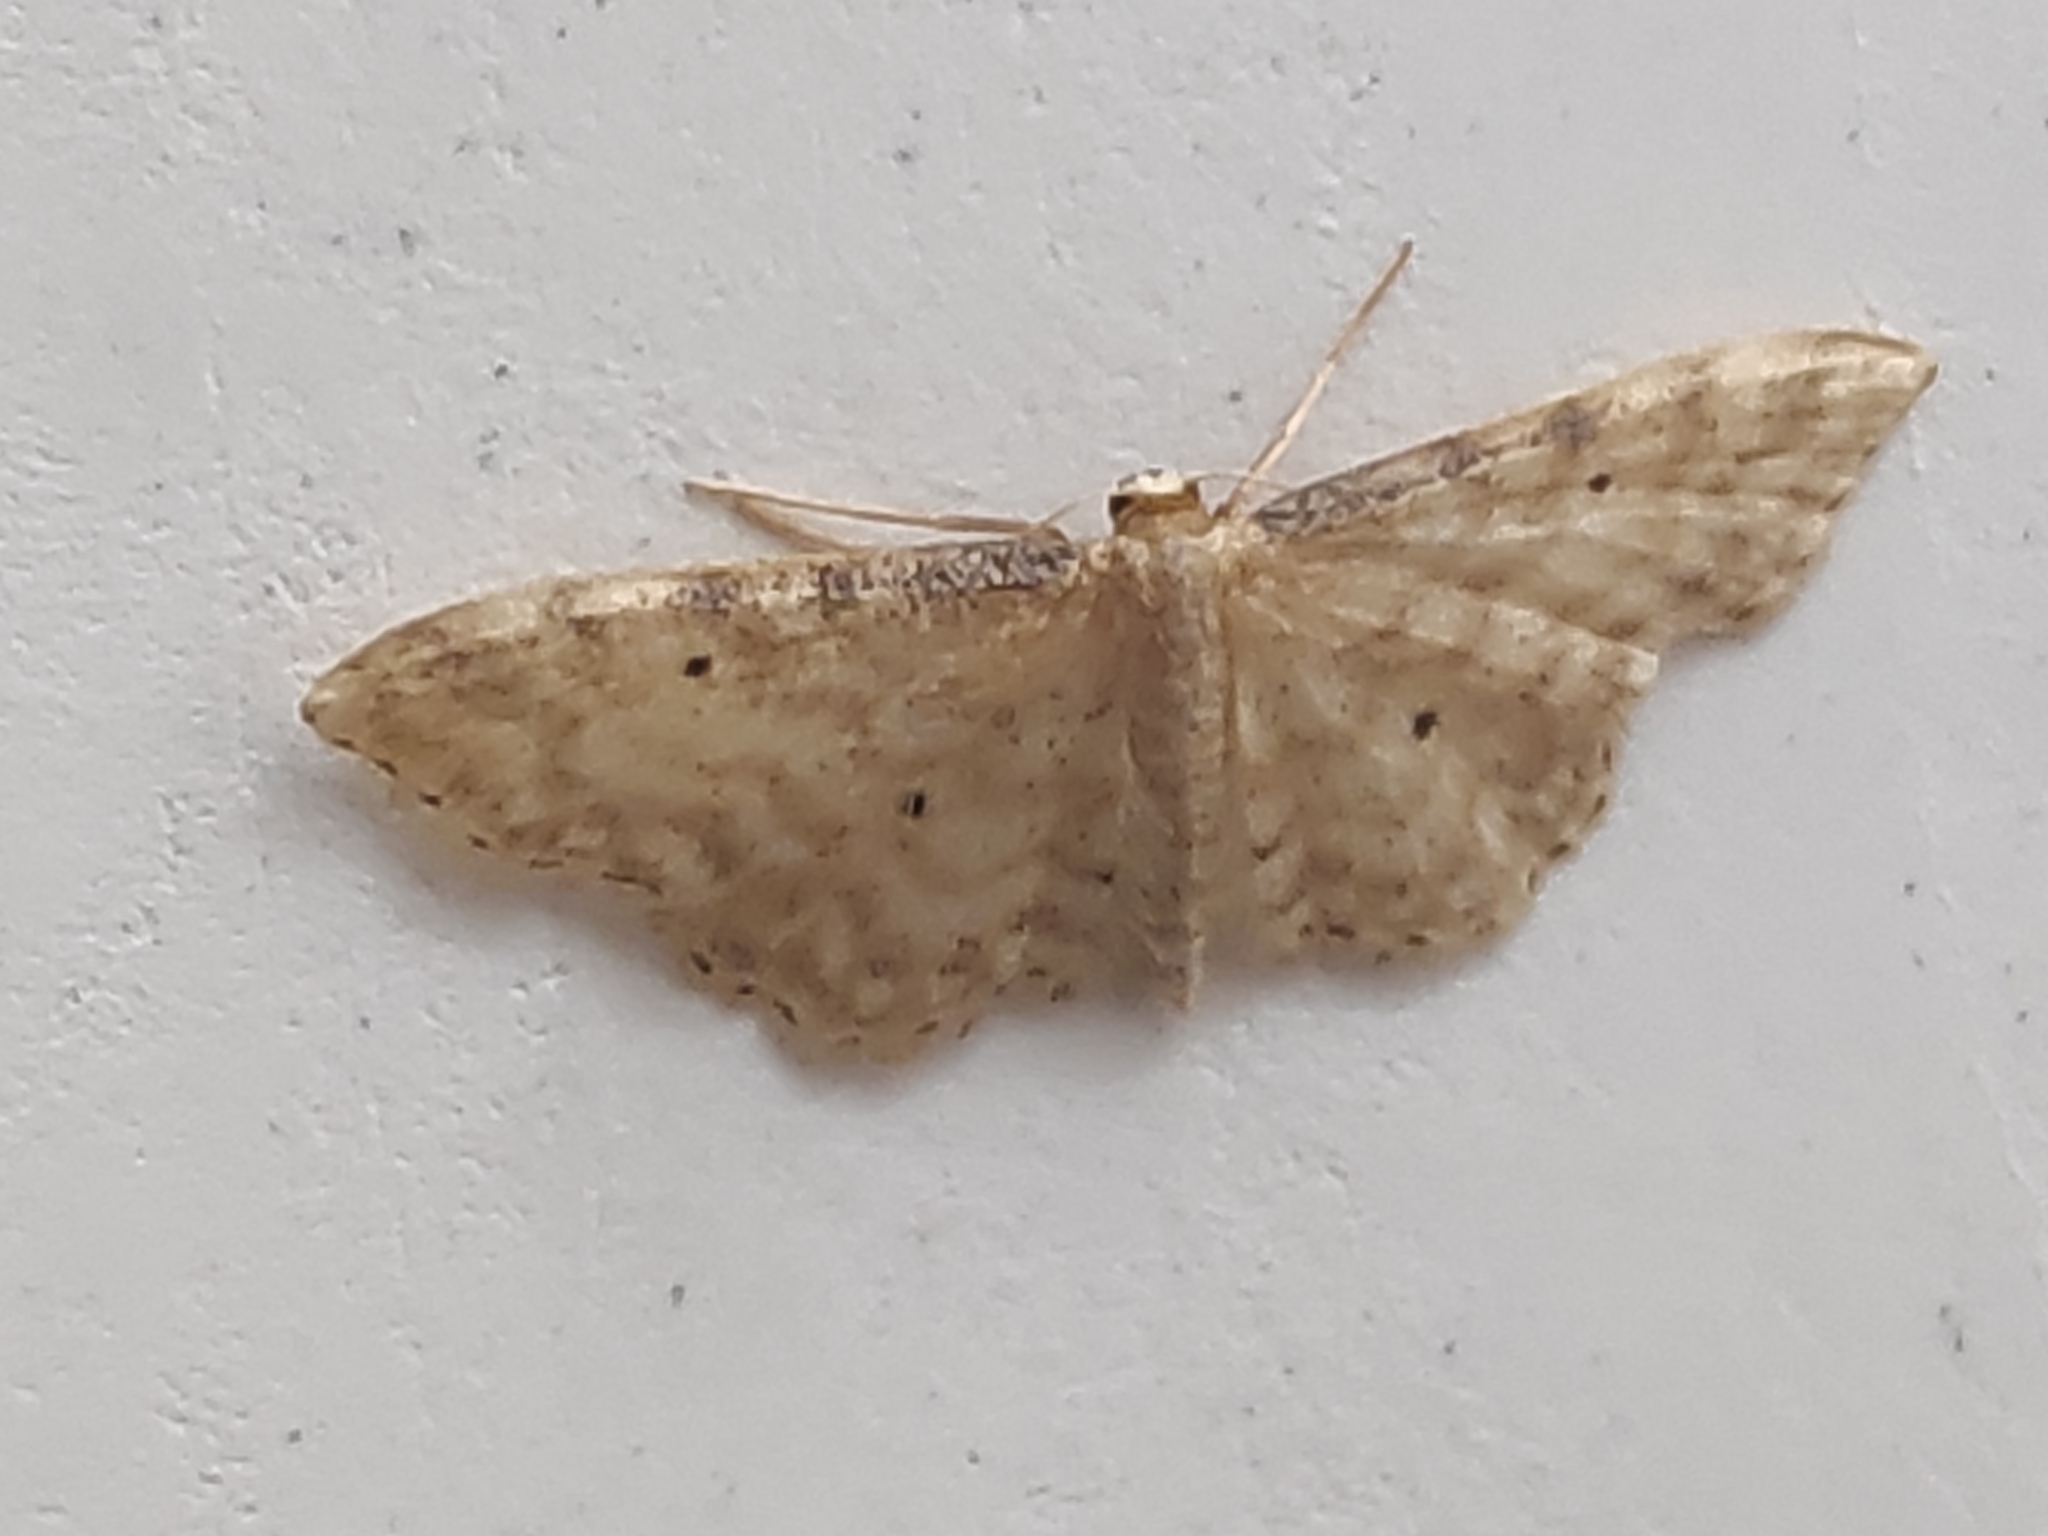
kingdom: Animalia
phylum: Arthropoda
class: Insecta
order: Lepidoptera
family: Geometridae
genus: Idaea
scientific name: Idaea fuscovenosa
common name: Dwarf cream wave
